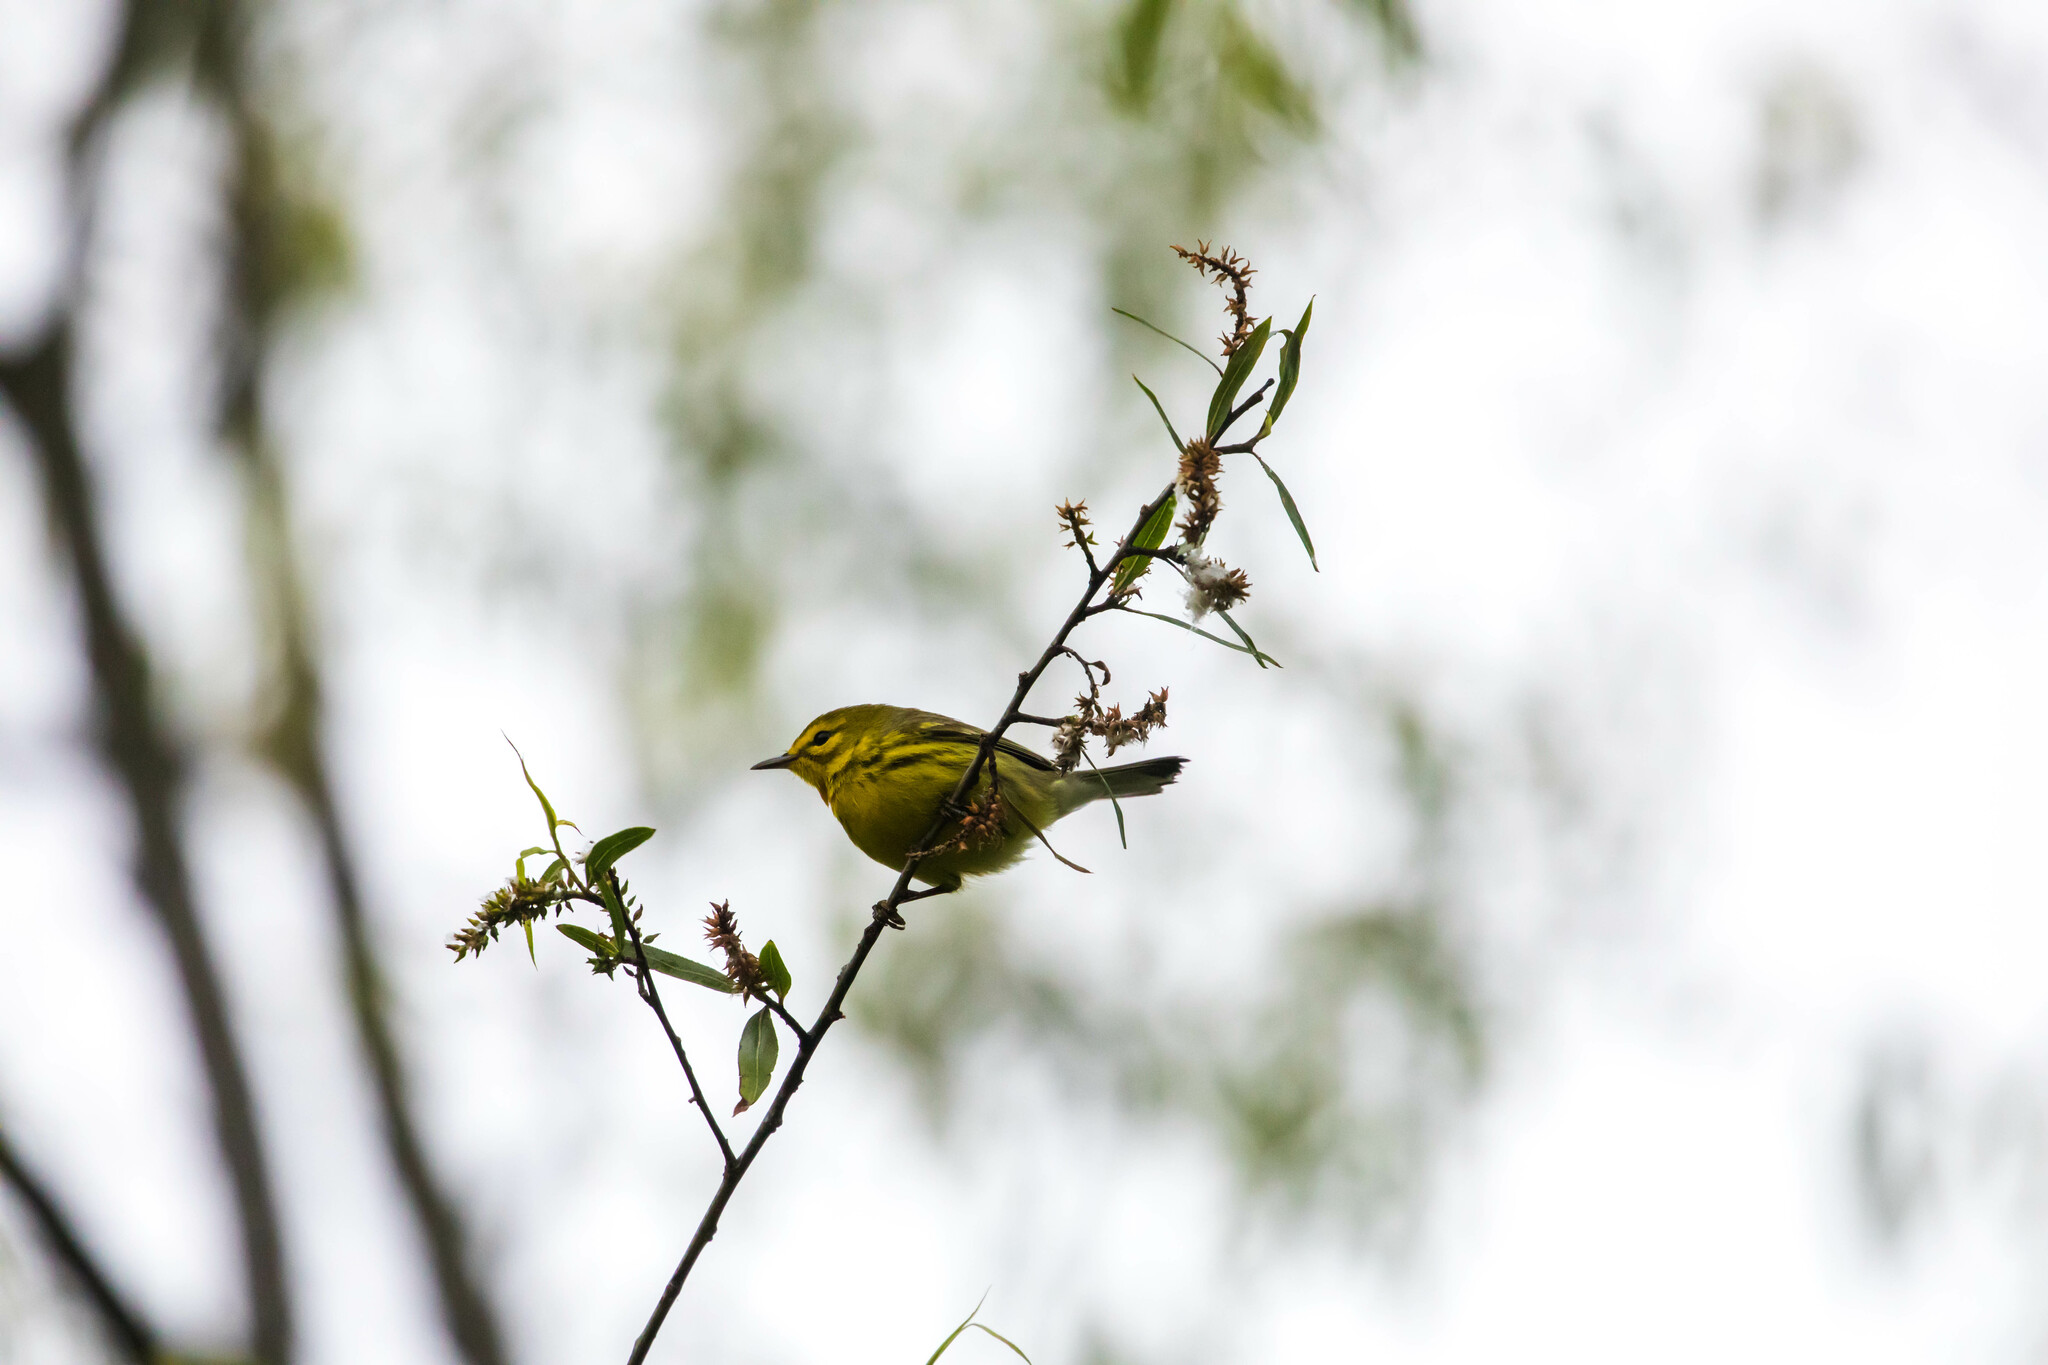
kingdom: Animalia
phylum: Chordata
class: Aves
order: Passeriformes
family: Parulidae
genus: Setophaga
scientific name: Setophaga discolor
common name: Prairie warbler
